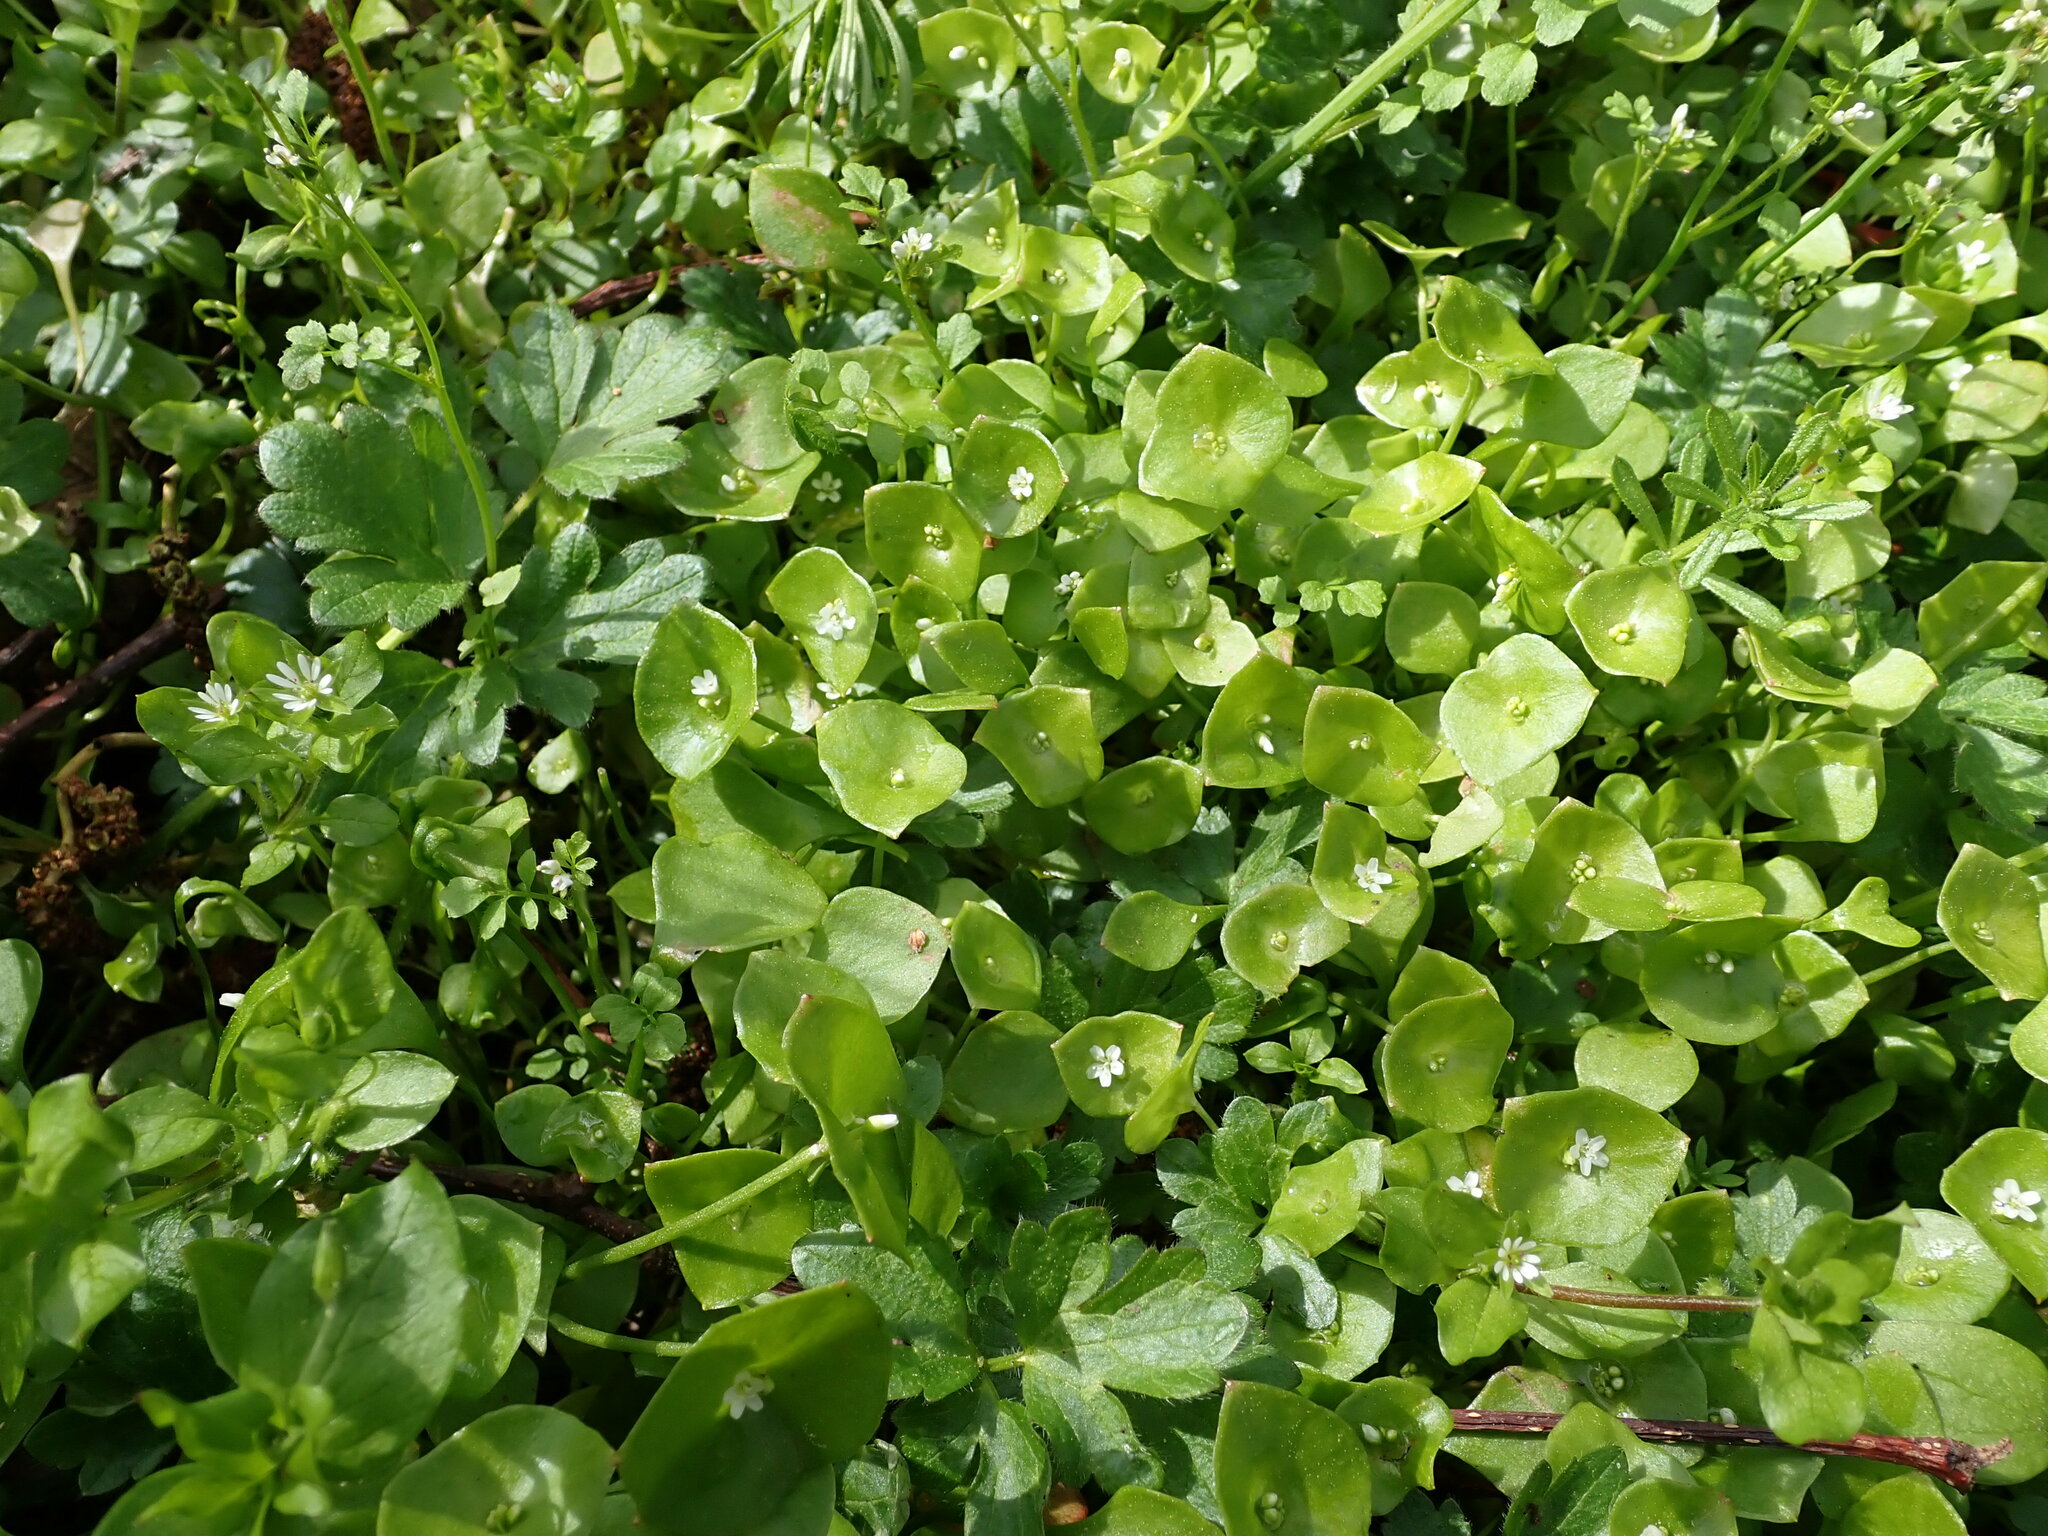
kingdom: Plantae
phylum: Tracheophyta
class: Magnoliopsida
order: Caryophyllales
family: Montiaceae
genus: Claytonia
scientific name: Claytonia perfoliata
